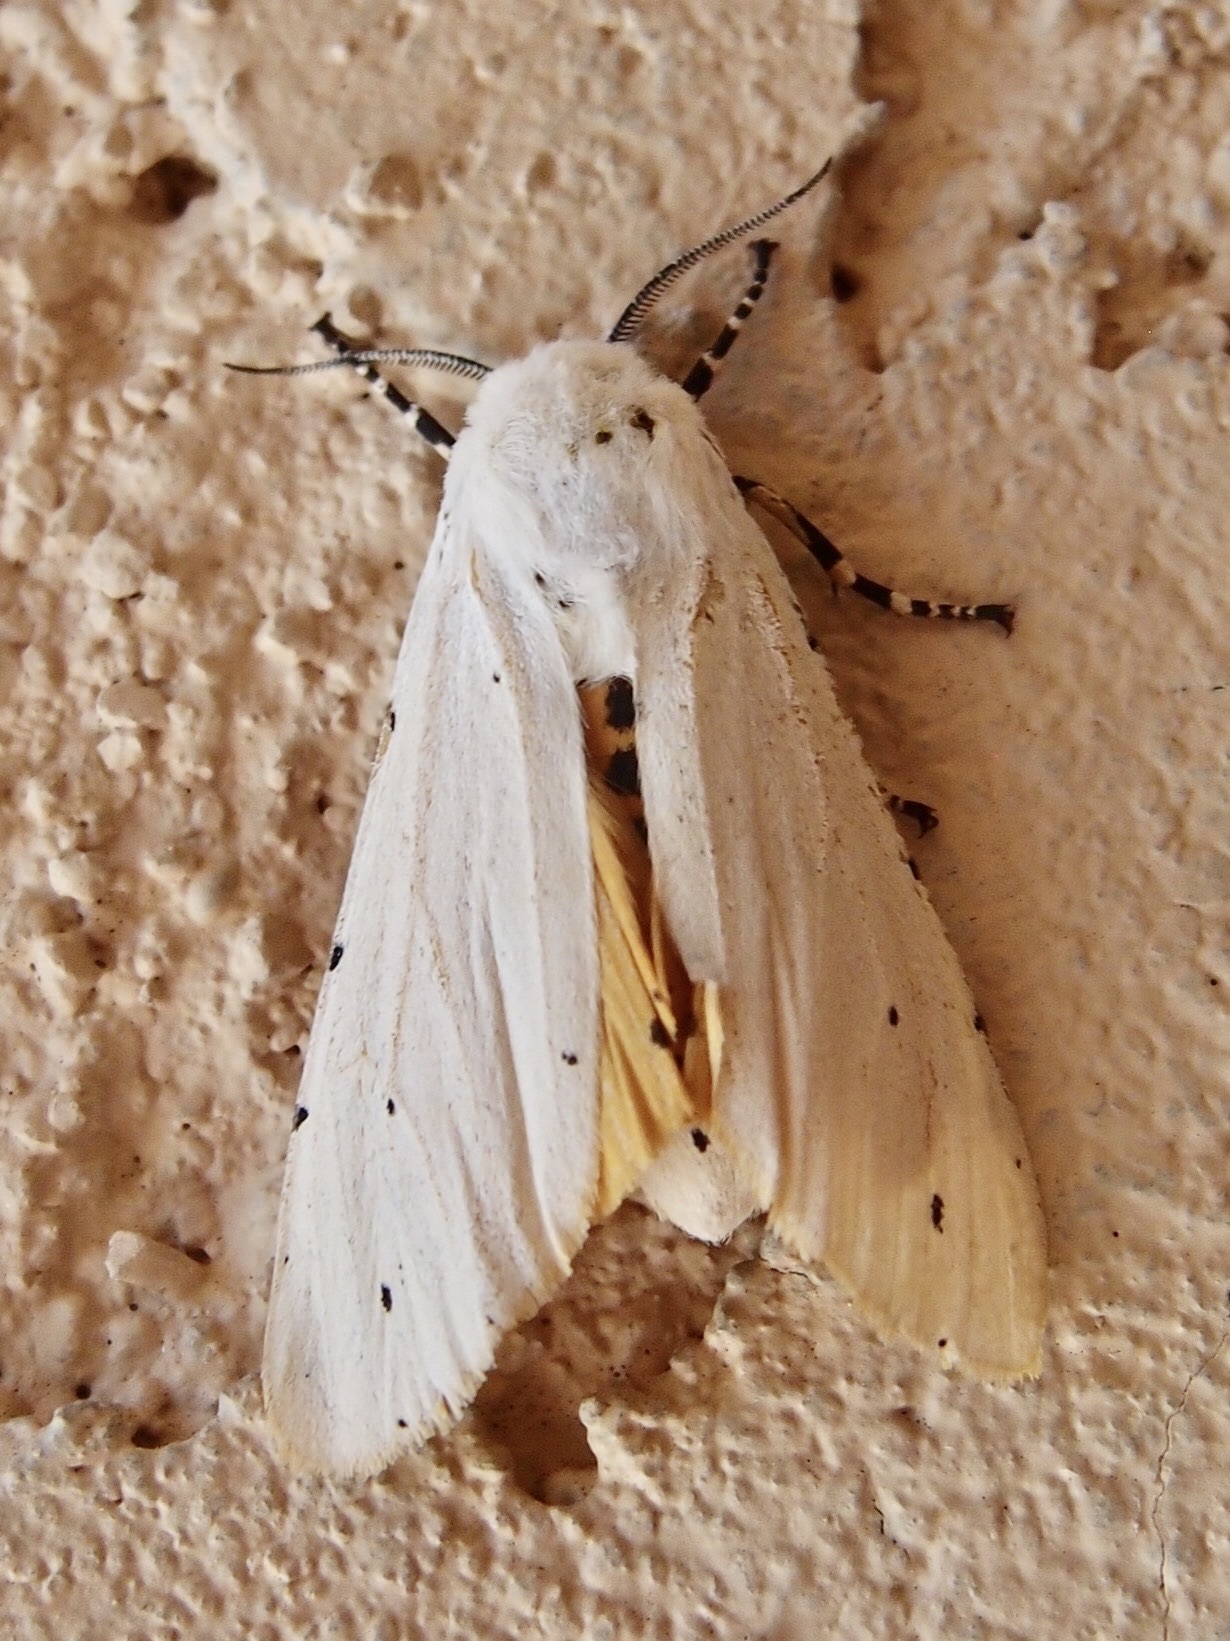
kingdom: Animalia
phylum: Arthropoda
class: Insecta
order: Lepidoptera
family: Erebidae
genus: Estigmene
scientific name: Estigmene acrea
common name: Salt marsh moth
